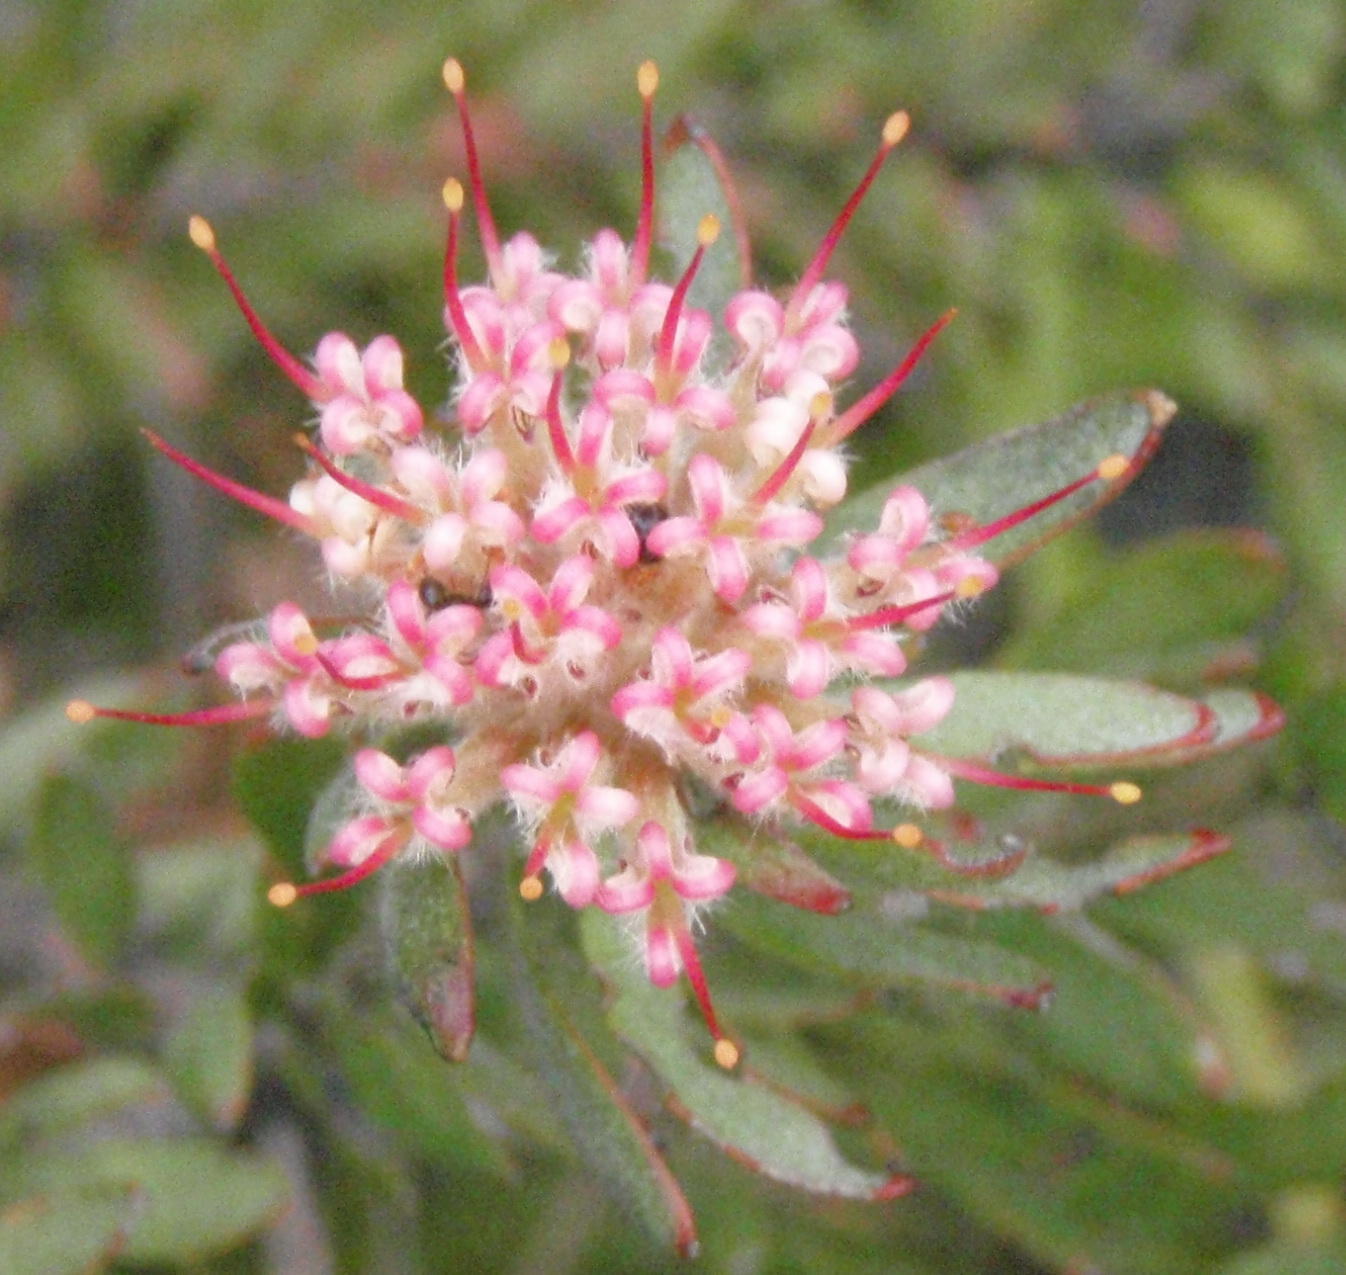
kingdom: Plantae
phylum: Tracheophyta
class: Magnoliopsida
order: Proteales
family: Proteaceae
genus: Leucospermum
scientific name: Leucospermum wittebergense
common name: Swartberg pincushion
